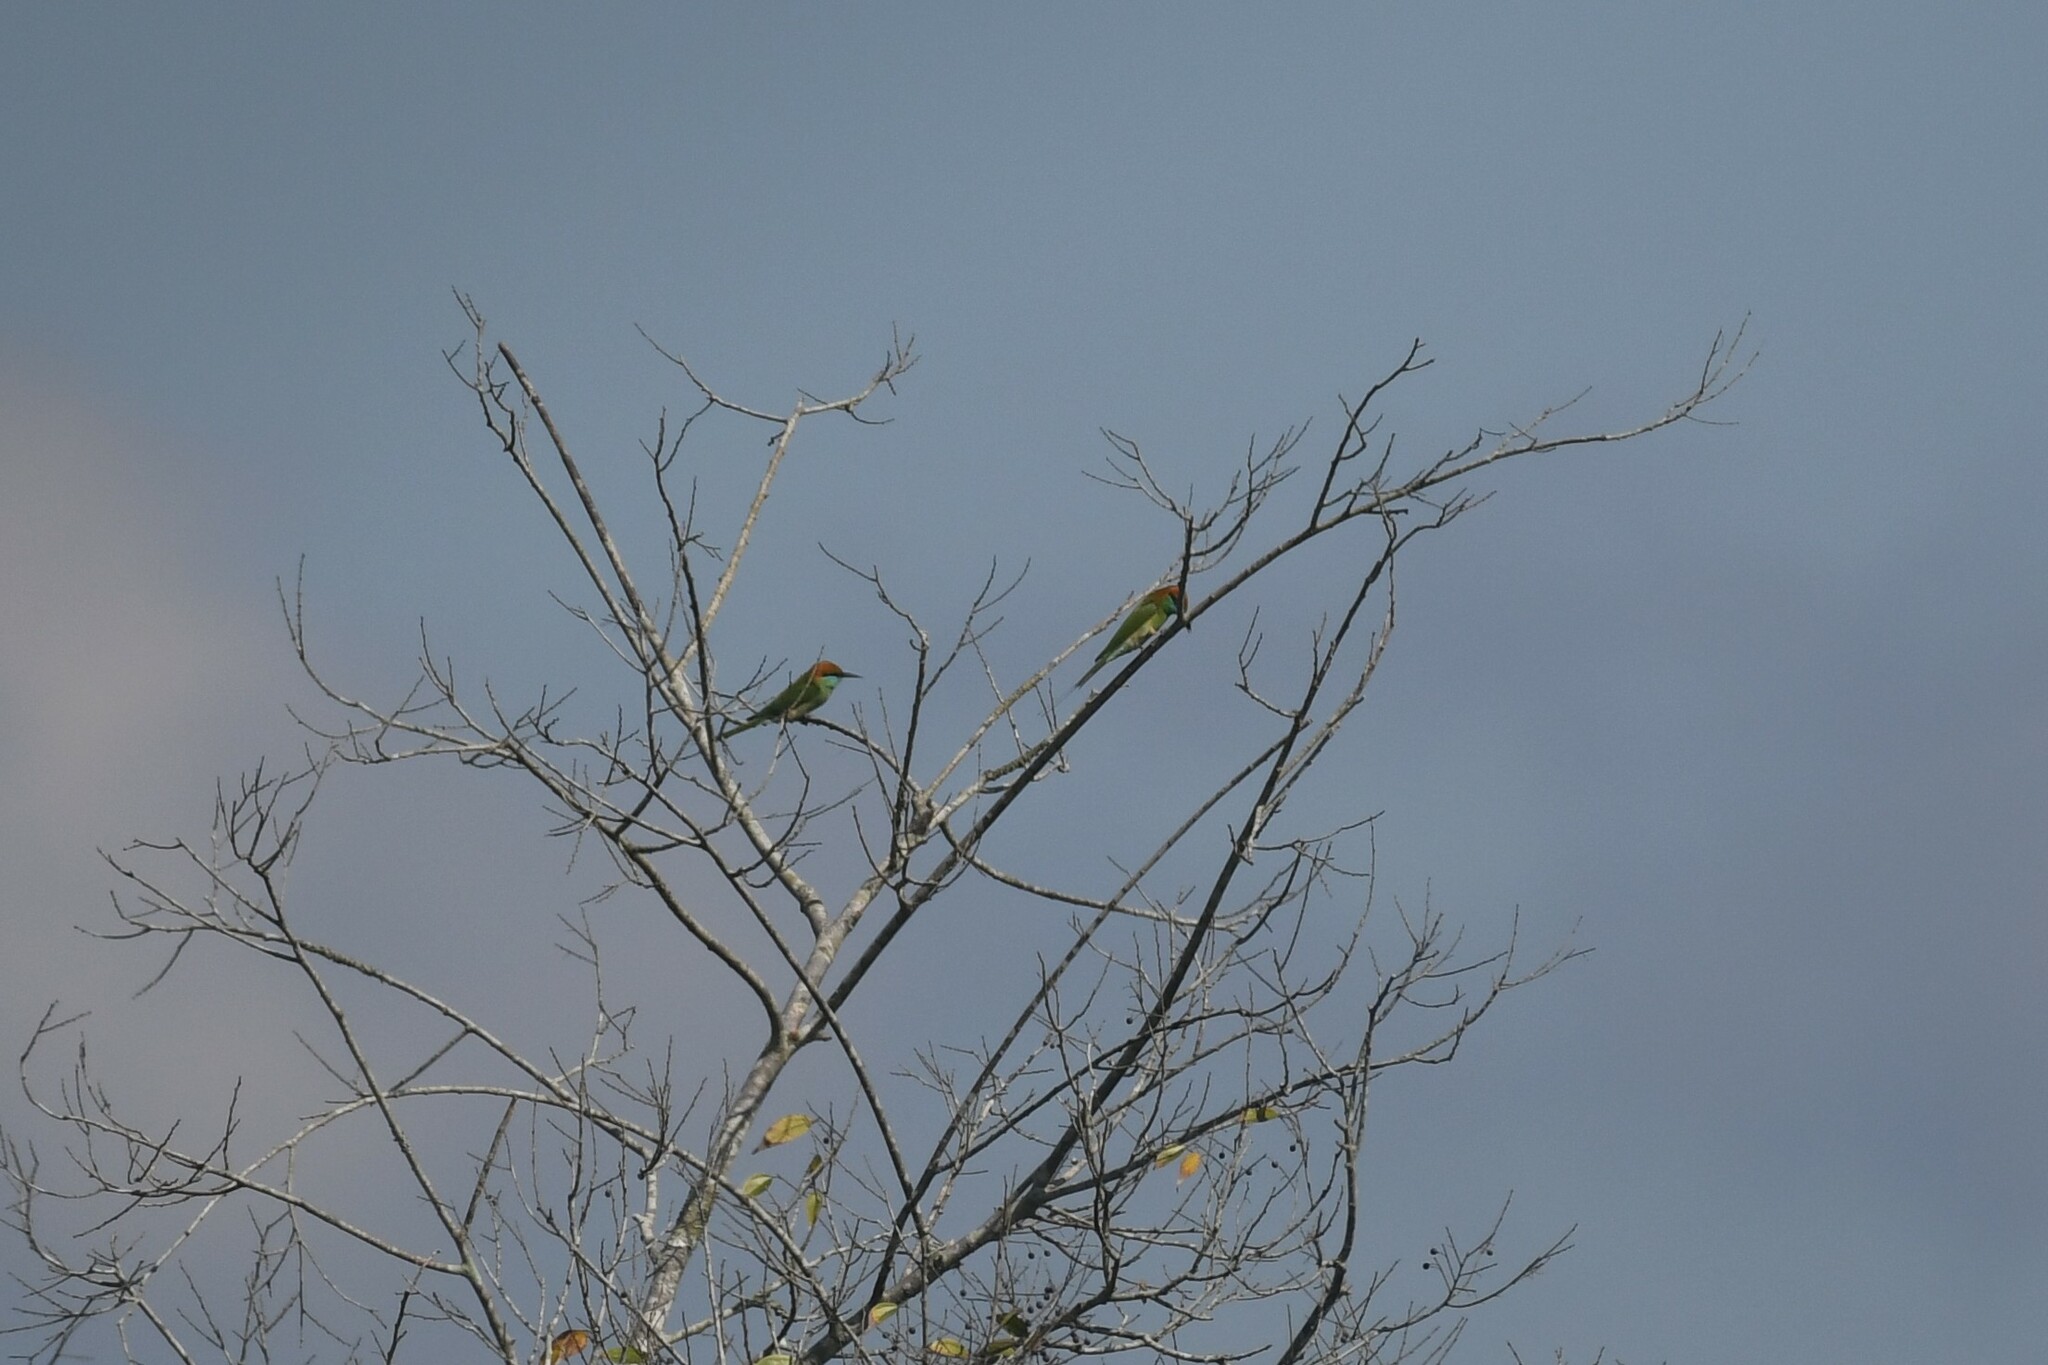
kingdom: Animalia
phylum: Chordata
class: Aves
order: Coraciiformes
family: Meropidae
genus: Merops
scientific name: Merops orientalis
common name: Green bee-eater
